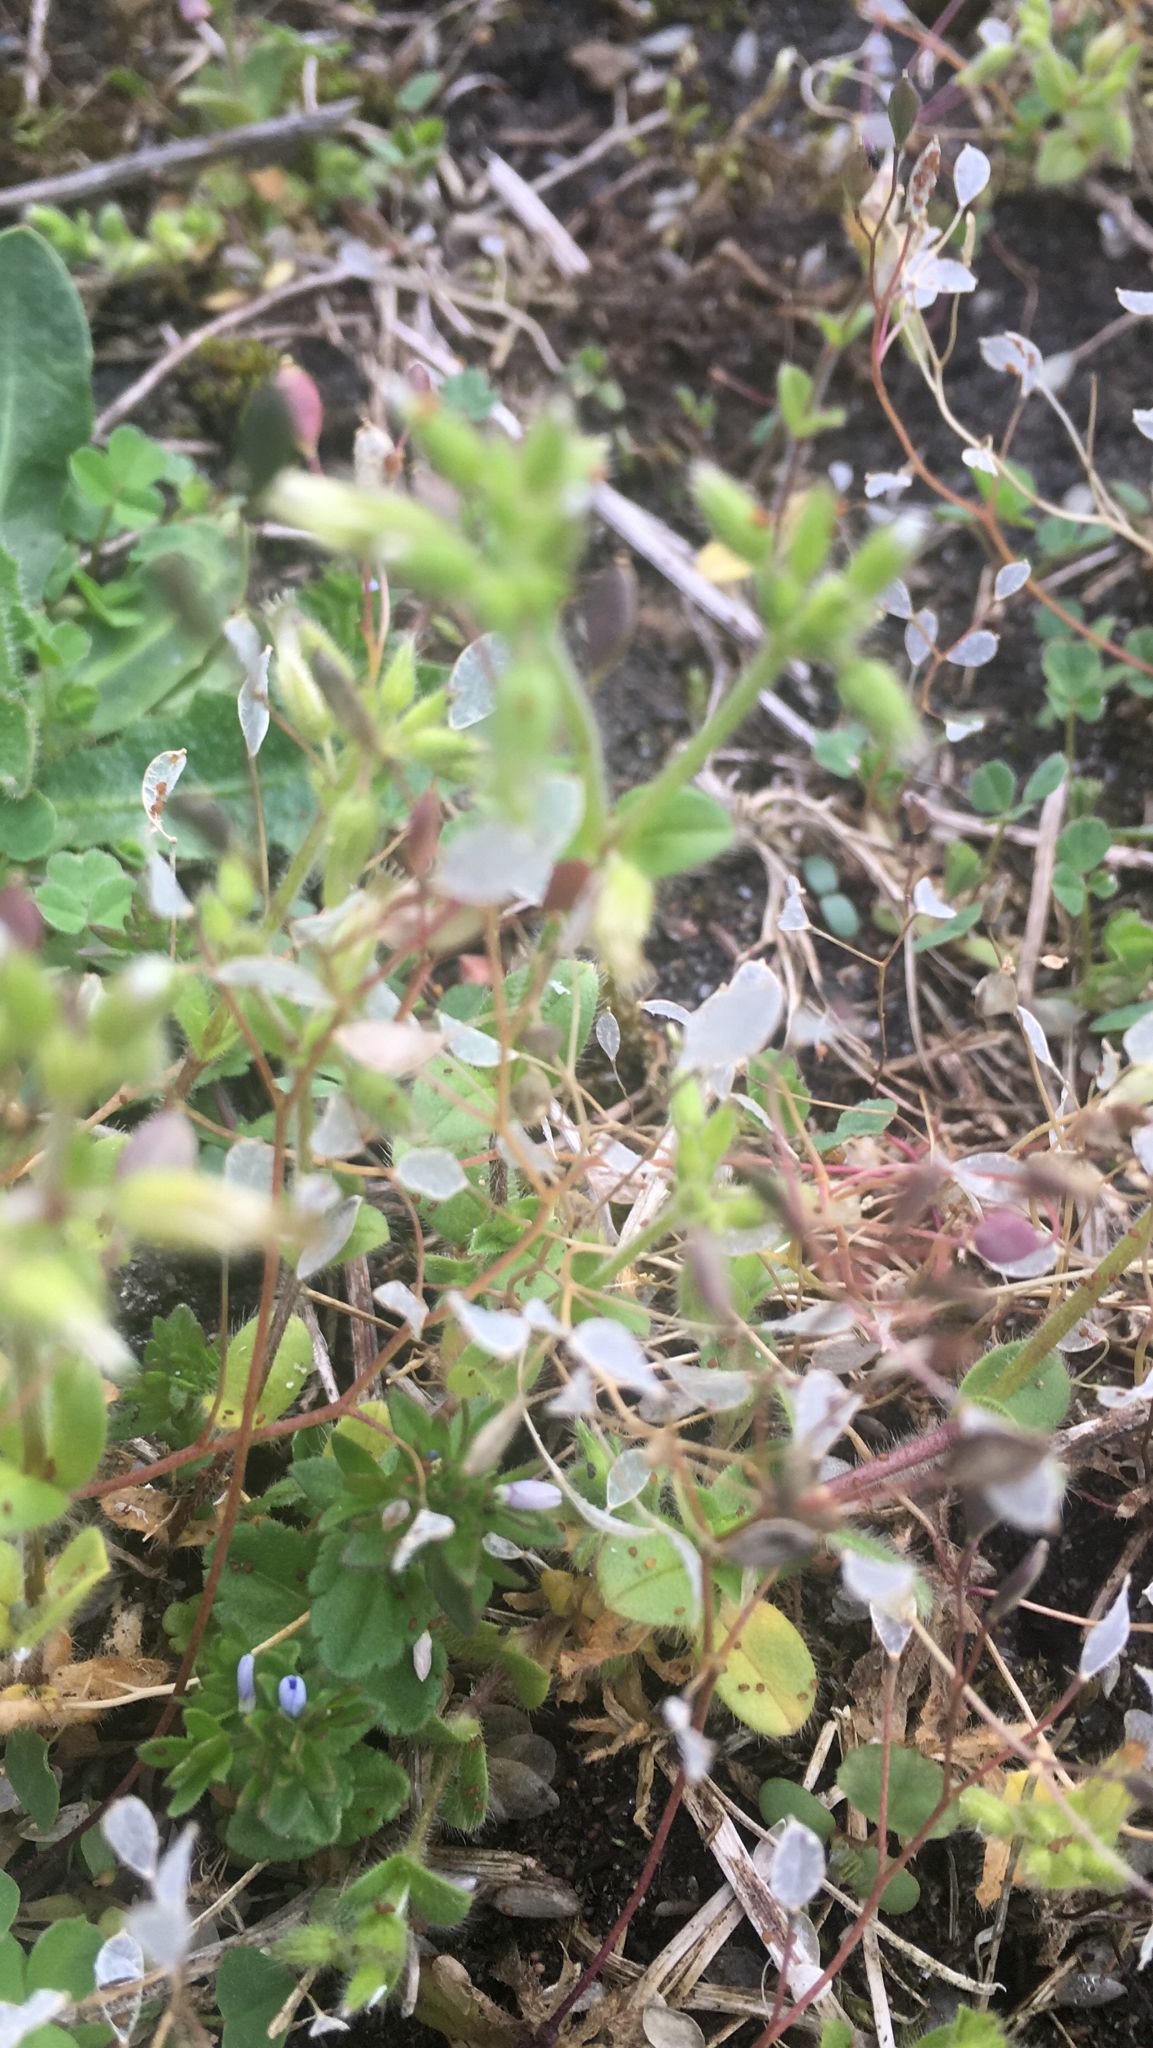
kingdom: Plantae
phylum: Tracheophyta
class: Magnoliopsida
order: Caryophyllales
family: Caryophyllaceae
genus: Cerastium
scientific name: Cerastium glomeratum
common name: Sticky chickweed
